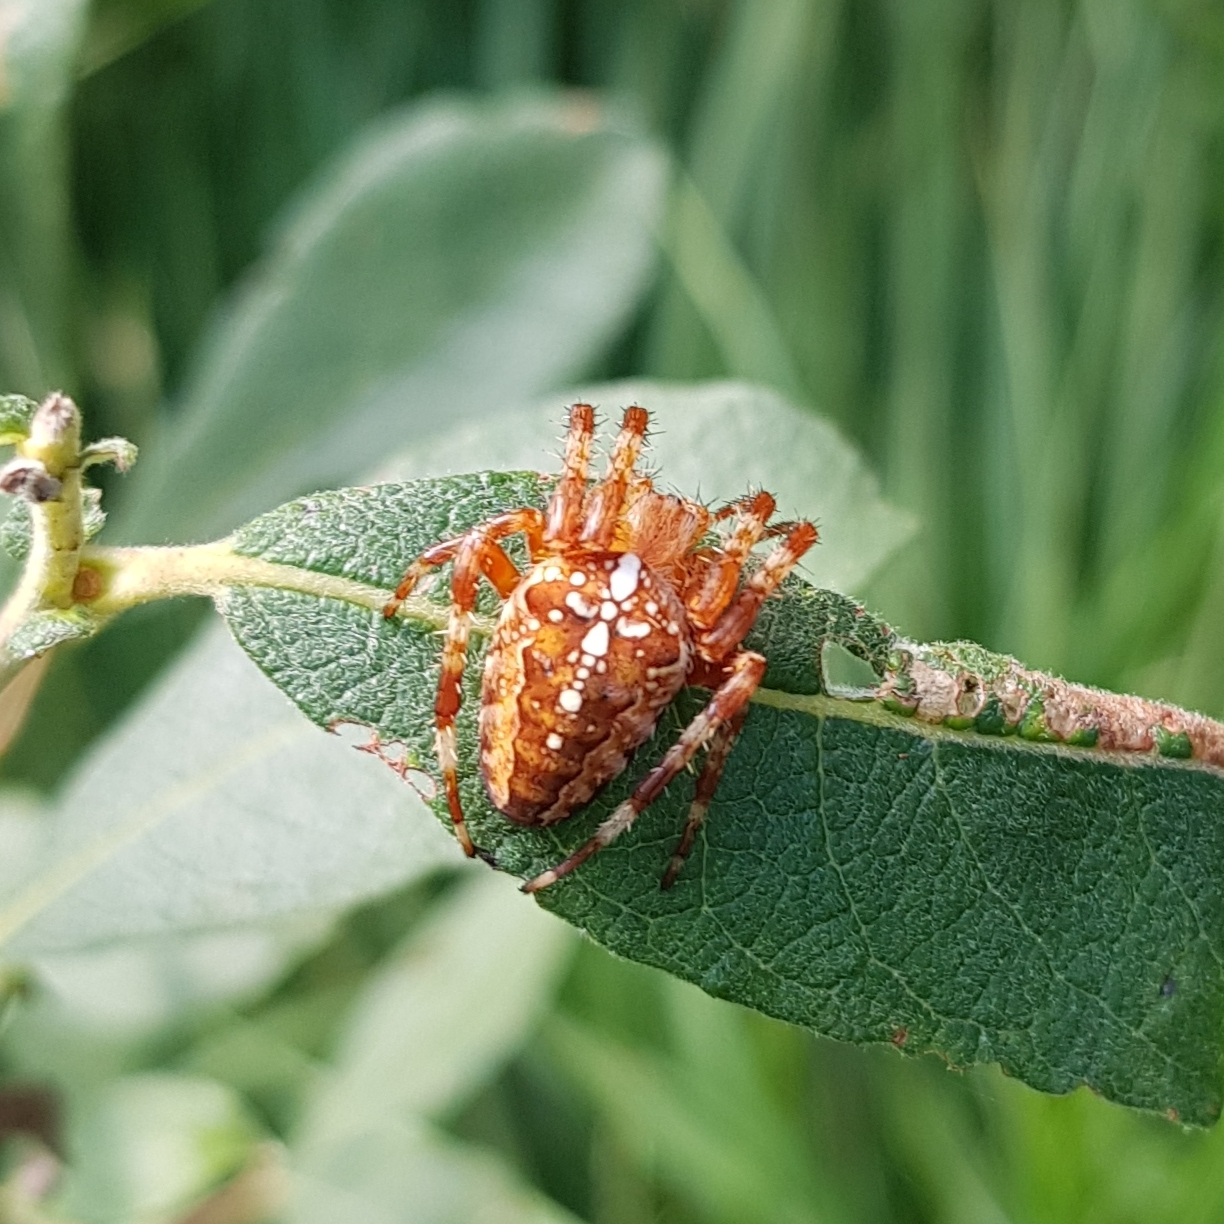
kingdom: Animalia
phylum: Arthropoda
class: Arachnida
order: Araneae
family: Araneidae
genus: Araneus
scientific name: Araneus diadematus
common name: Cross orbweaver
